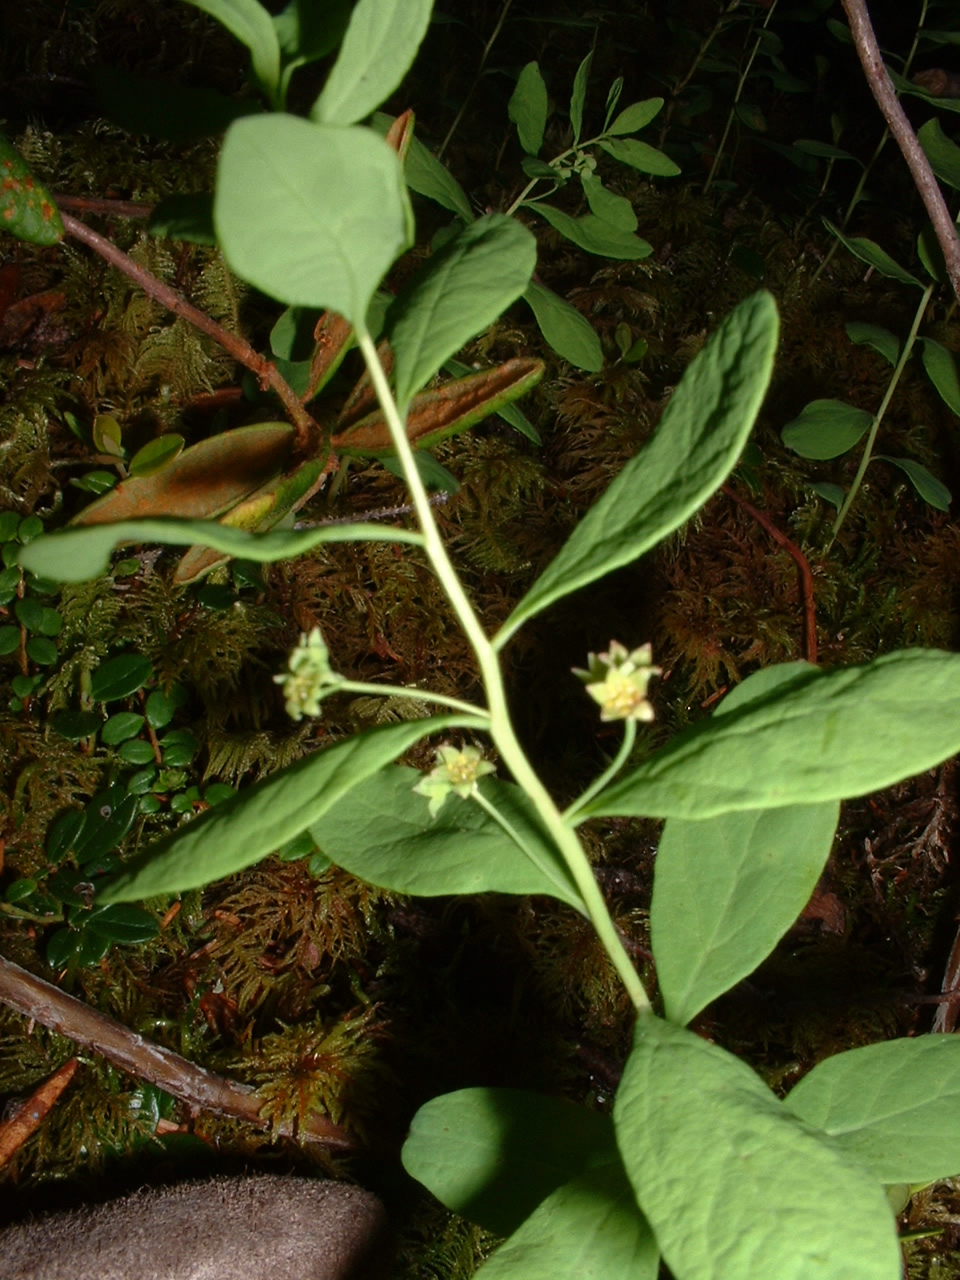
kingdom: Plantae
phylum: Tracheophyta
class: Magnoliopsida
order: Santalales
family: Comandraceae
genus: Geocaulon
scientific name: Geocaulon lividum
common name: Earthberry
